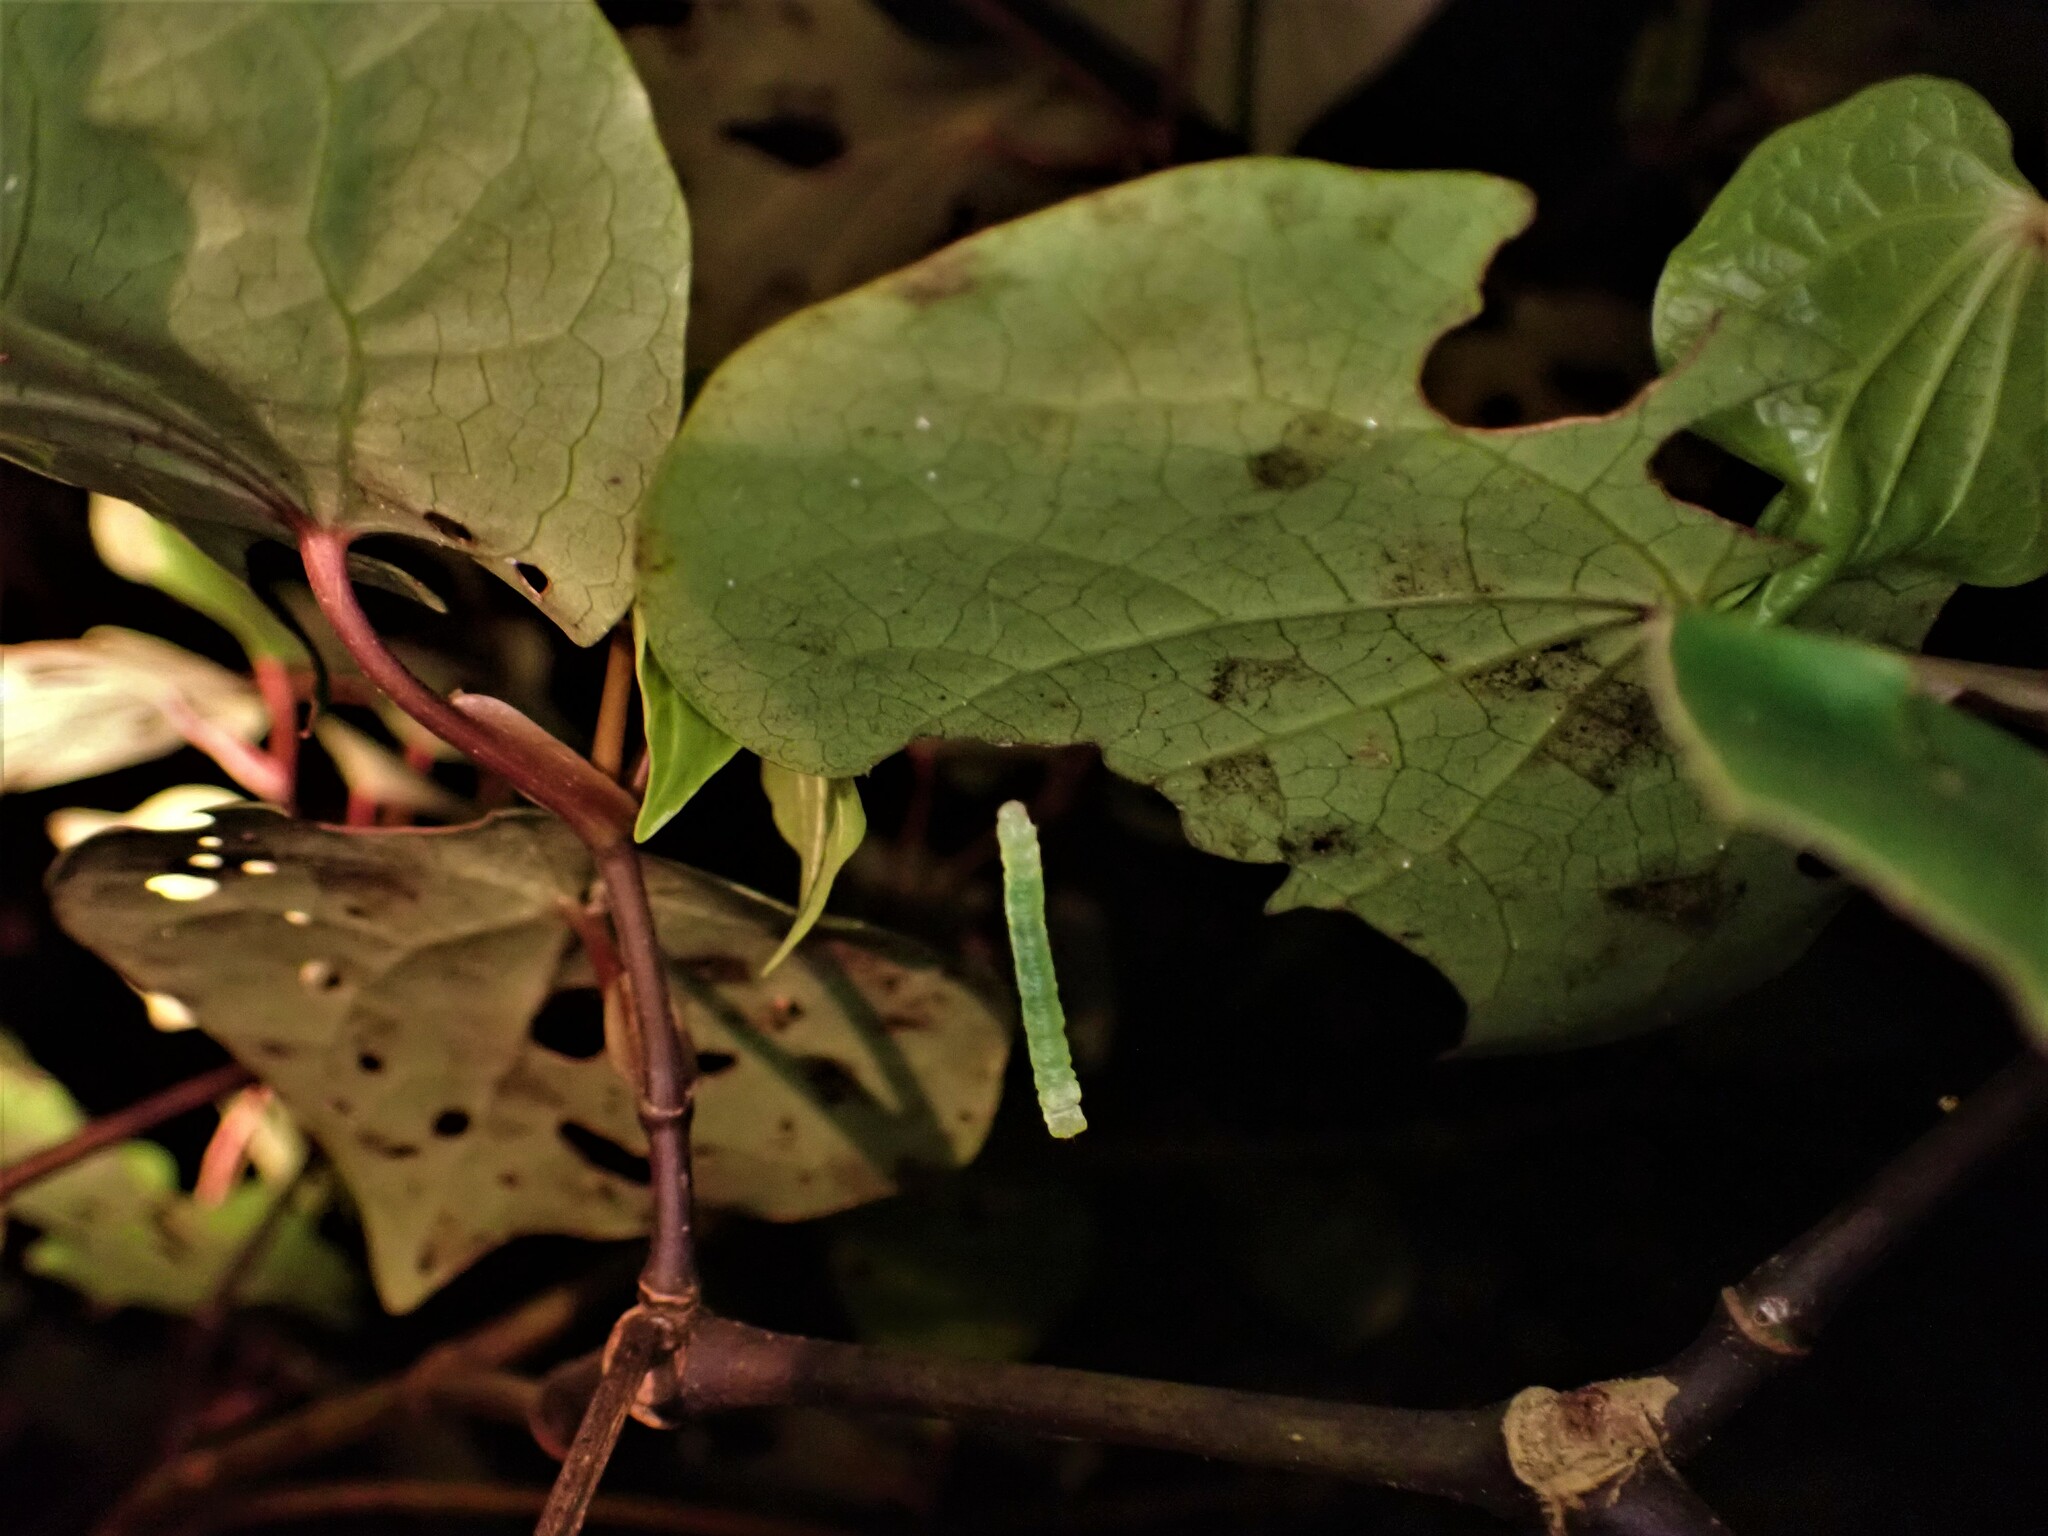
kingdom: Animalia
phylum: Arthropoda
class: Insecta
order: Lepidoptera
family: Geometridae
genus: Cleora
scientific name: Cleora scriptaria
